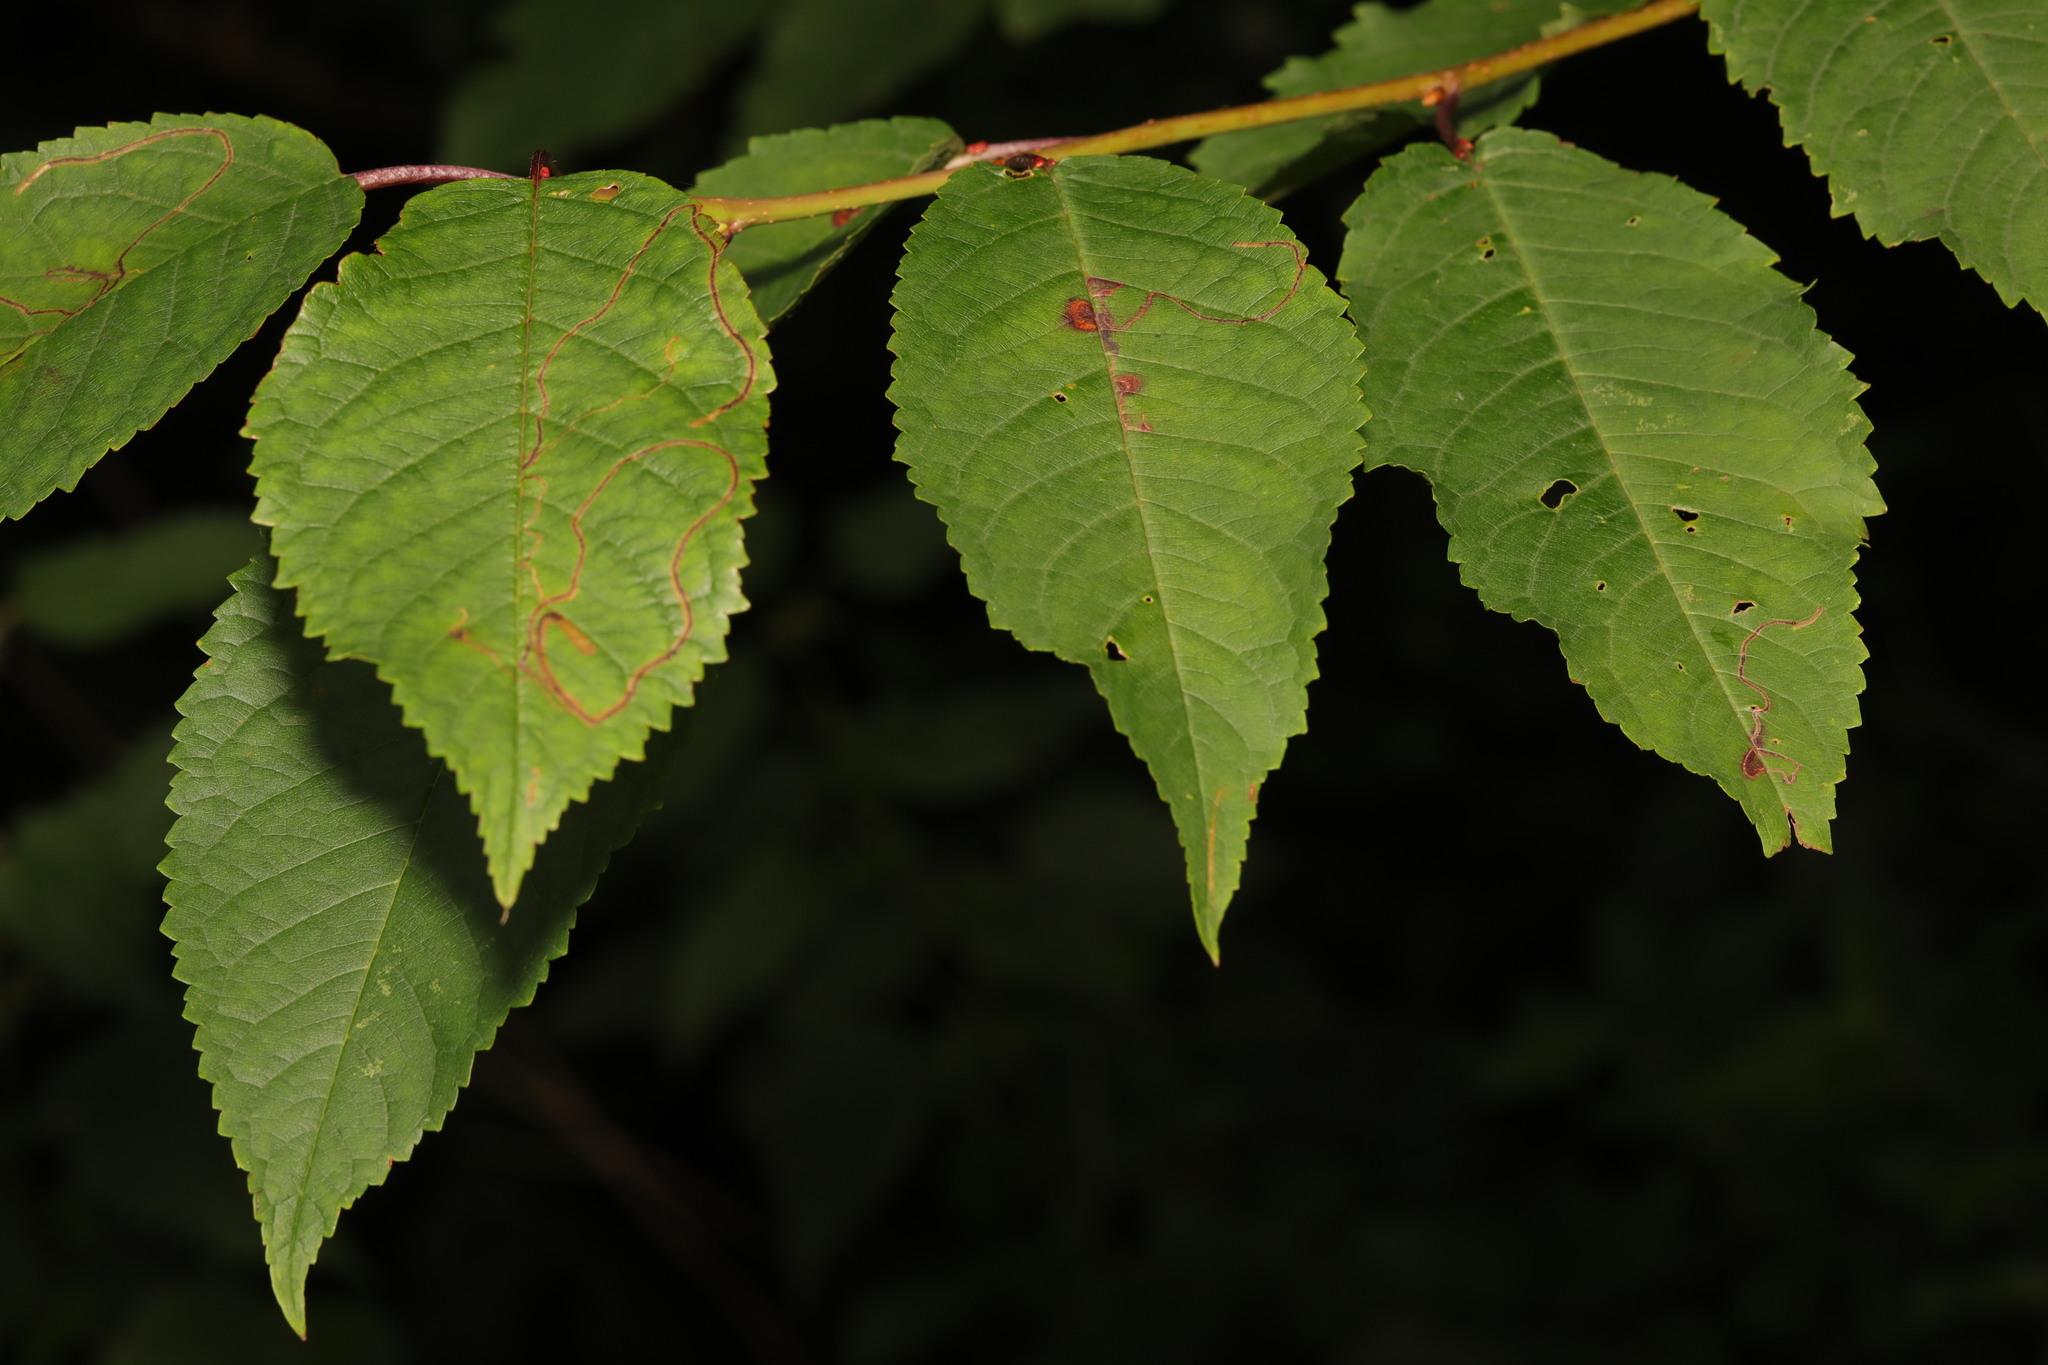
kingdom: Plantae
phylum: Tracheophyta
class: Magnoliopsida
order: Rosales
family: Rosaceae
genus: Prunus
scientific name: Prunus avium
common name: Sweet cherry
